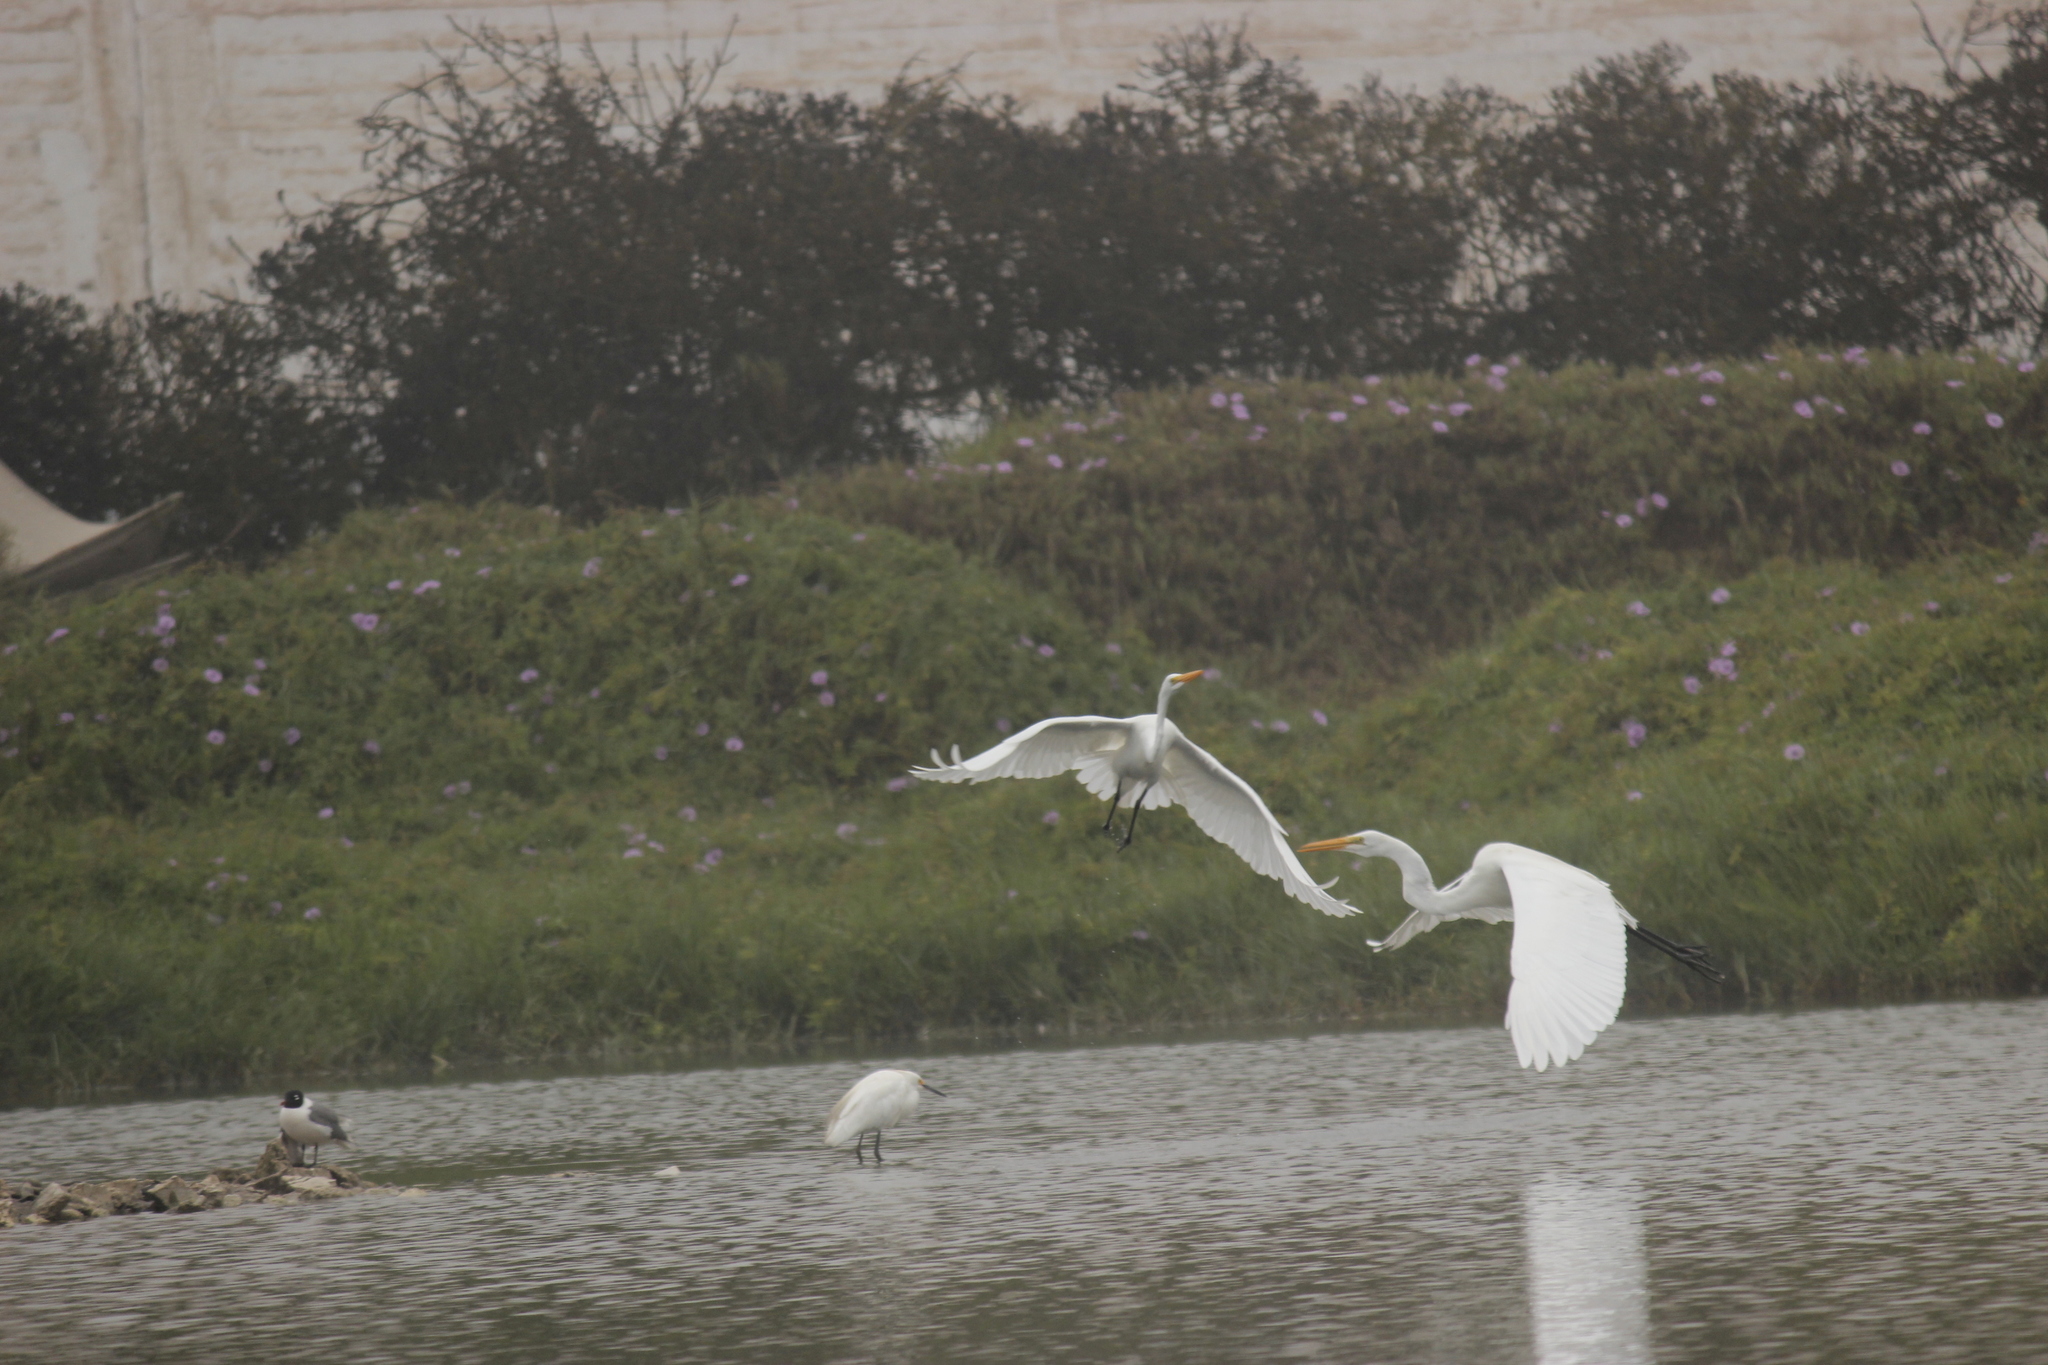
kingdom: Animalia
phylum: Chordata
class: Aves
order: Pelecaniformes
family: Ardeidae
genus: Ardea
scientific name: Ardea alba
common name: Great egret
